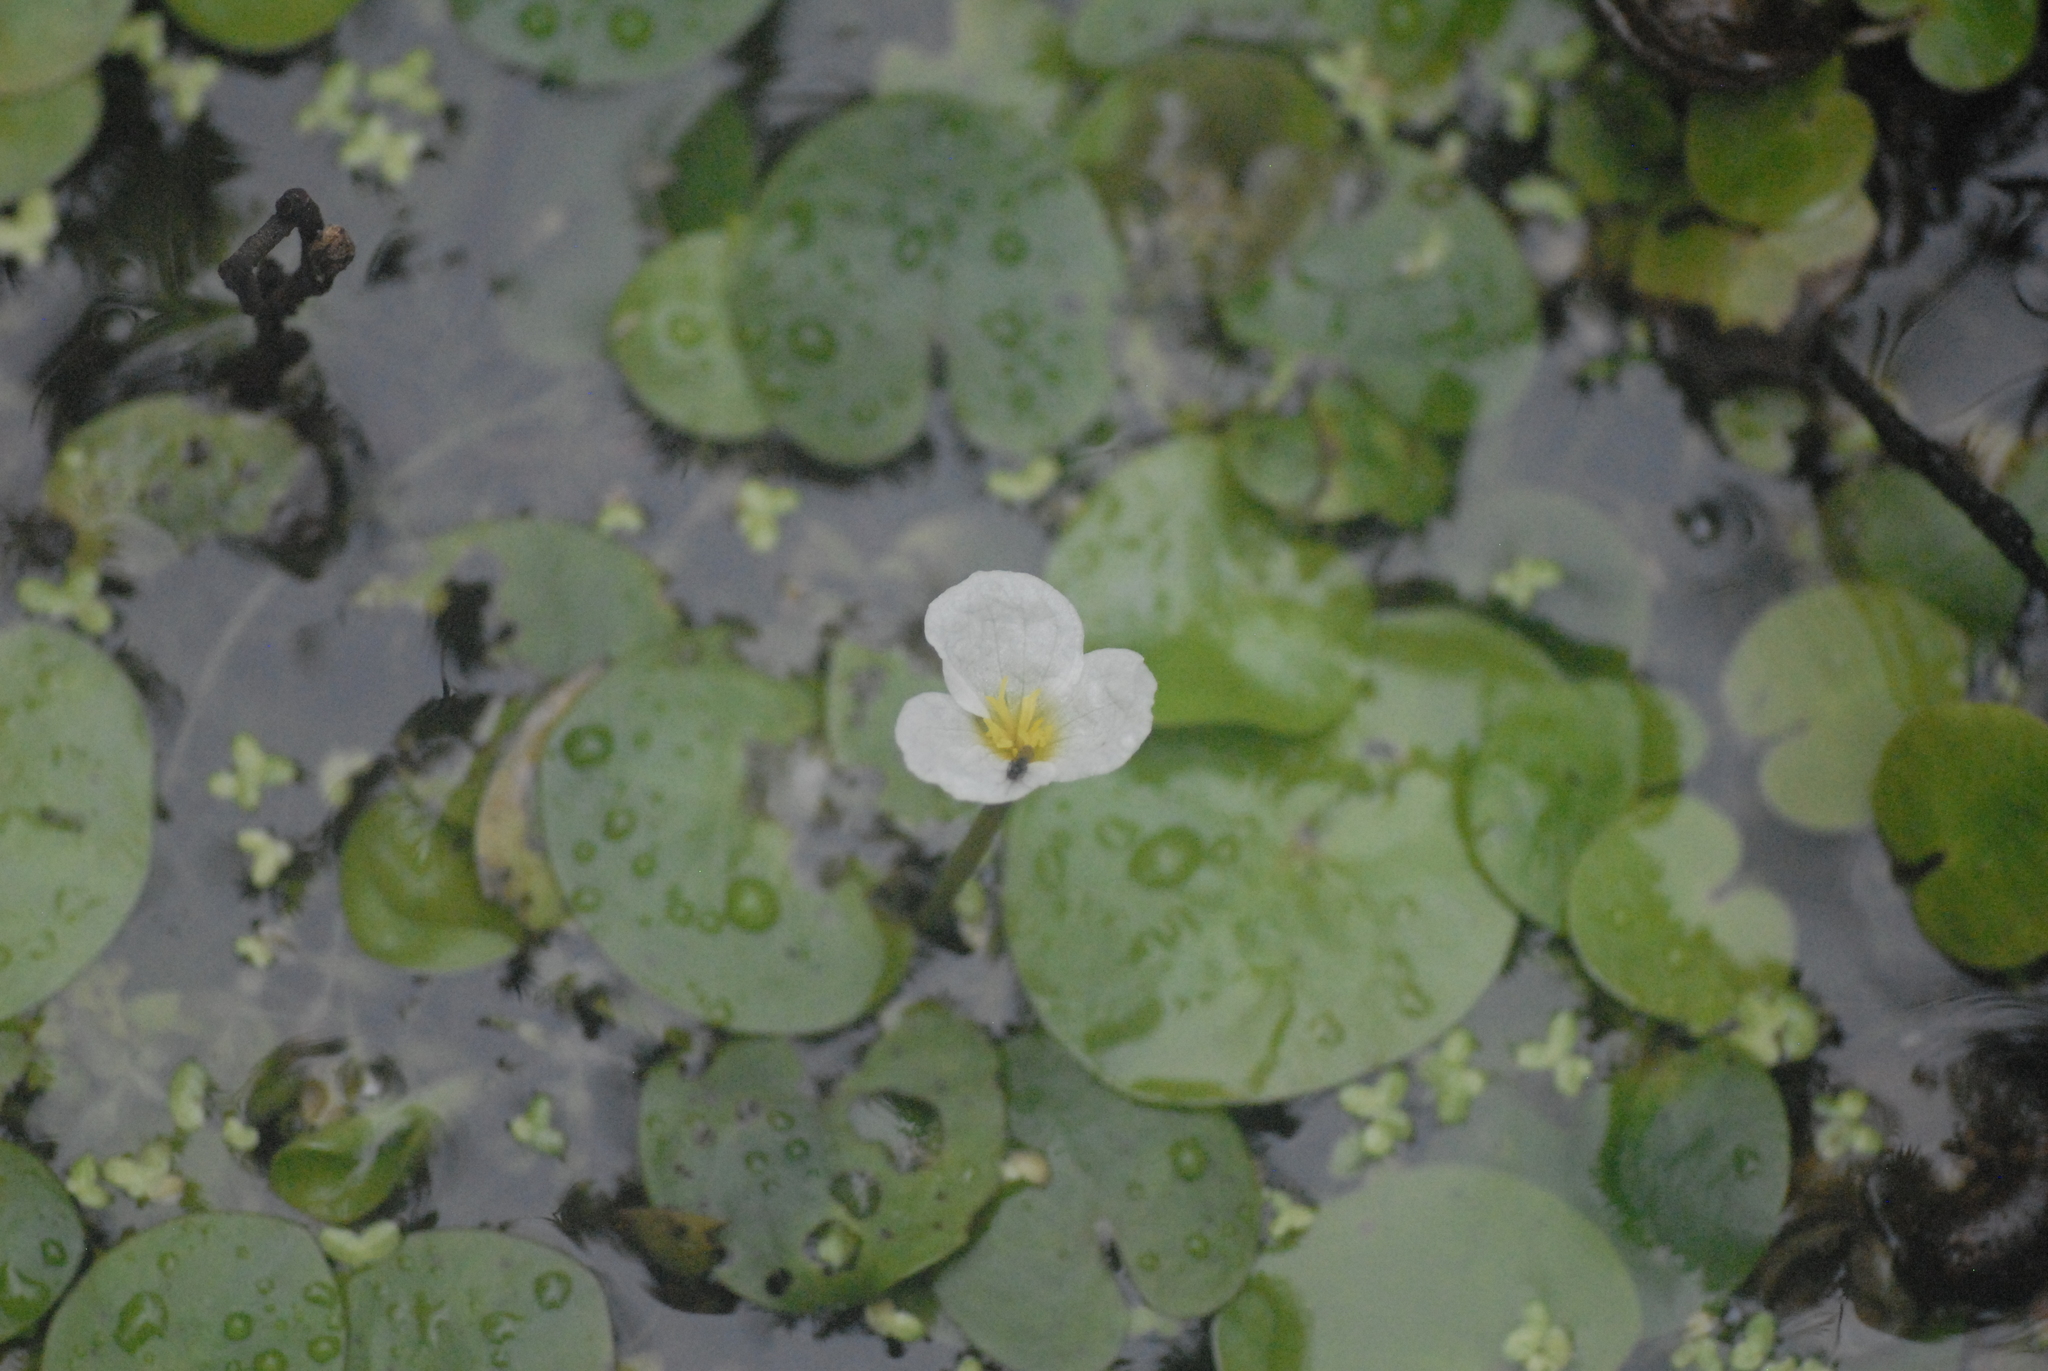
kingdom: Plantae
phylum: Tracheophyta
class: Liliopsida
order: Alismatales
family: Hydrocharitaceae
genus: Hydrocharis
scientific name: Hydrocharis morsus-ranae
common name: Frogbit
